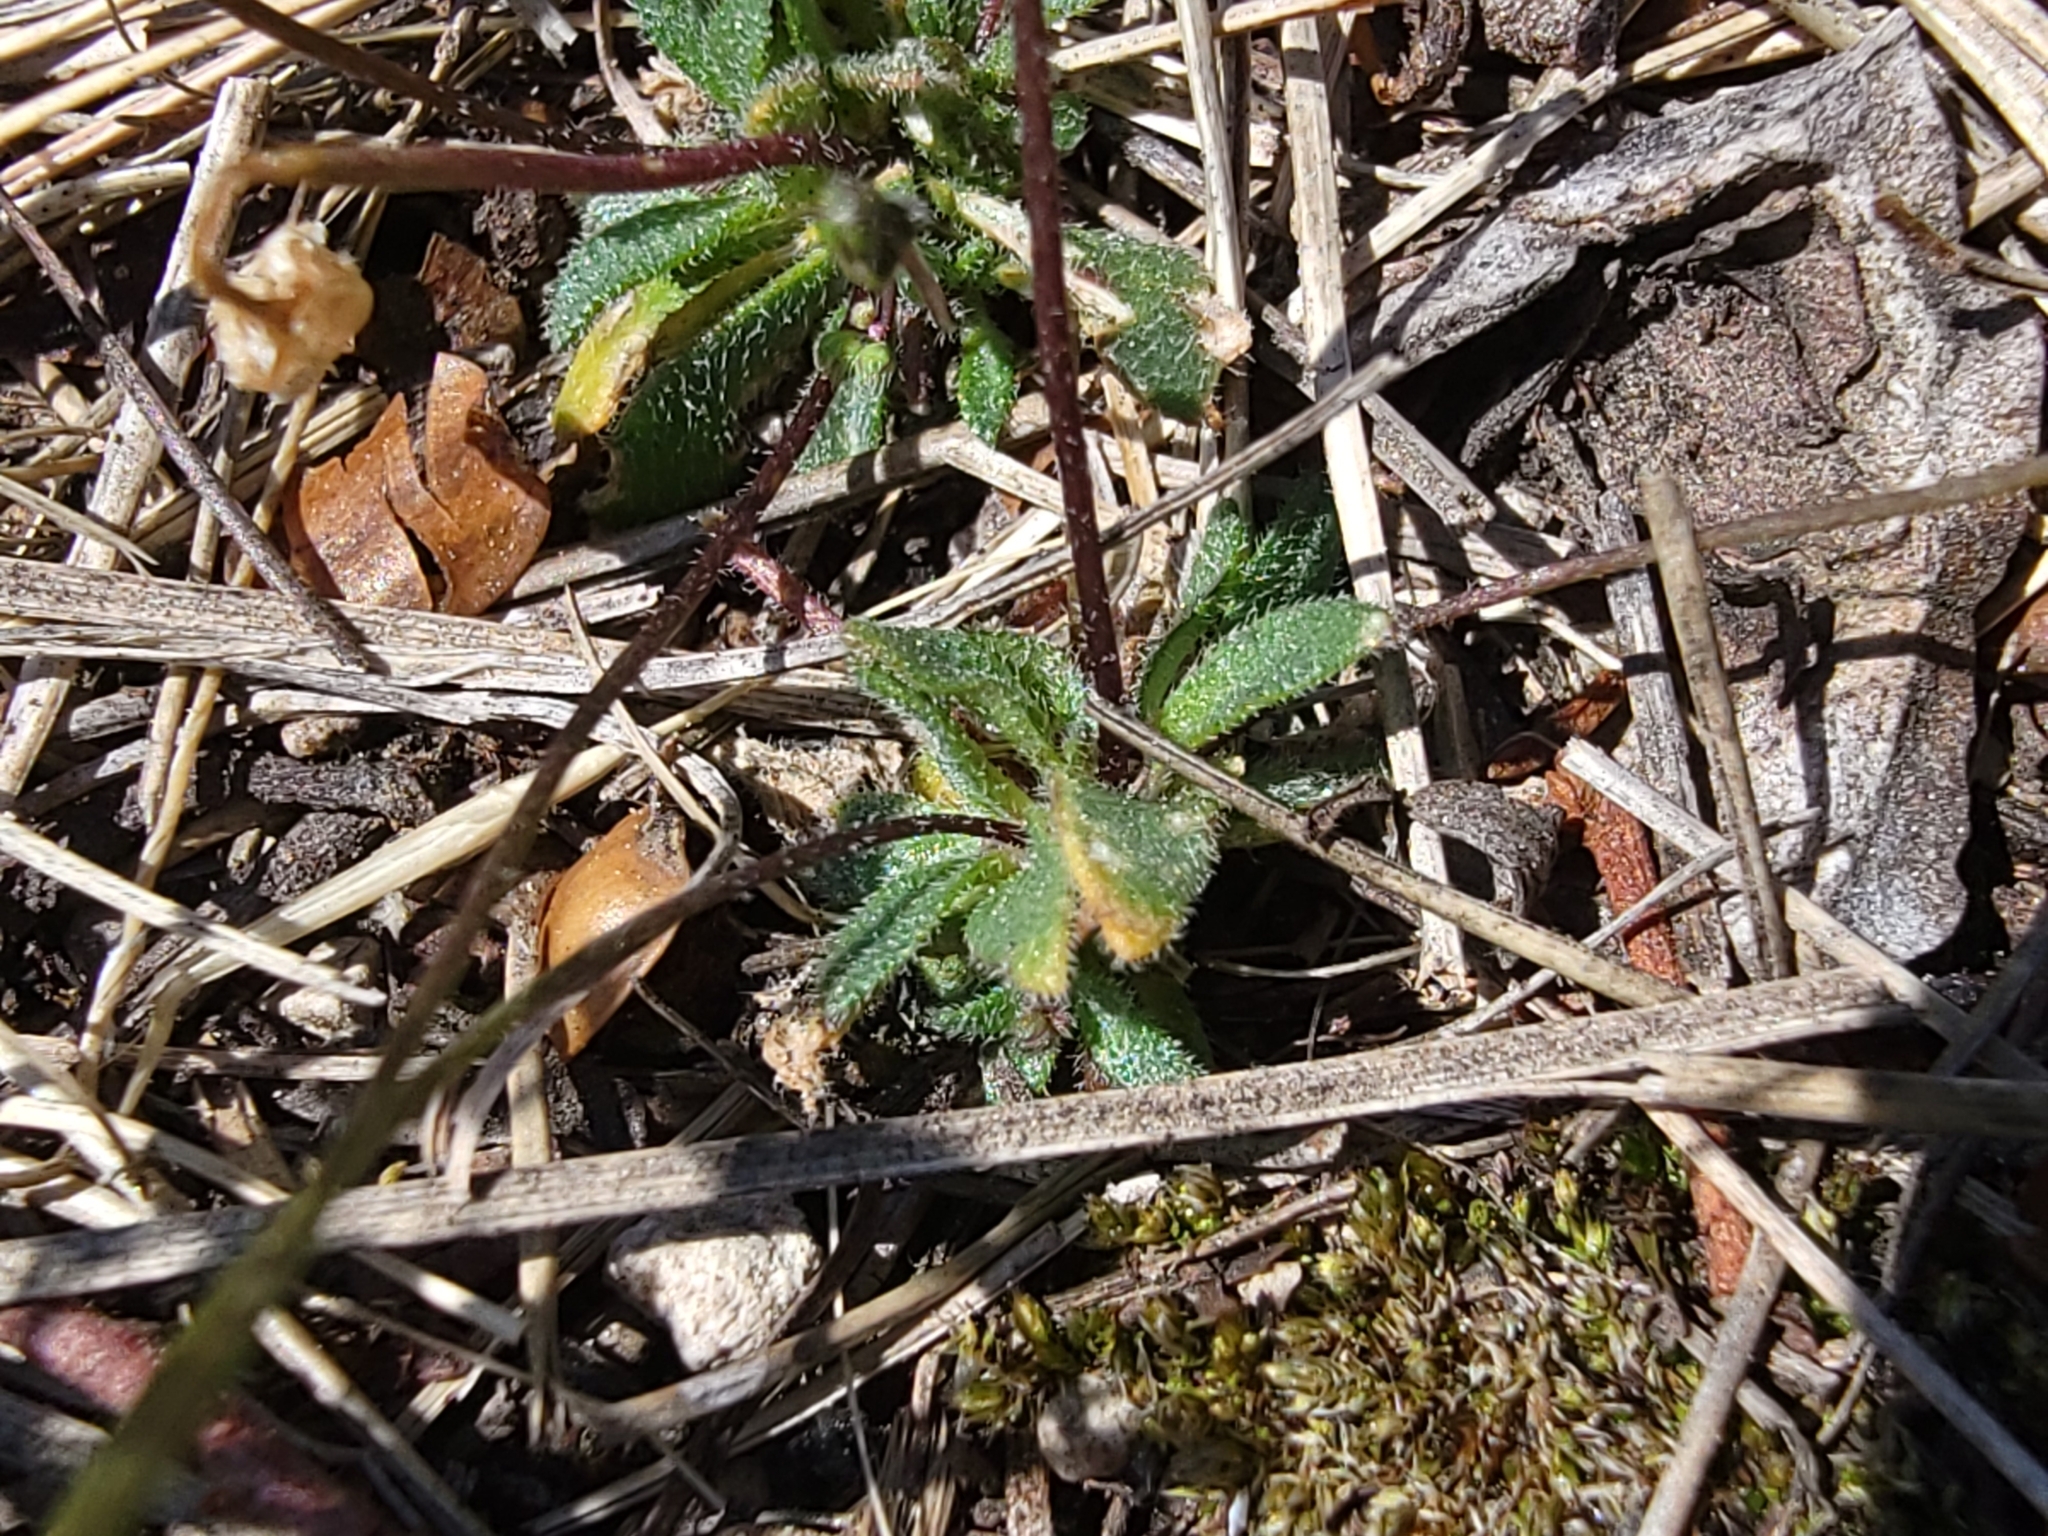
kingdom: Plantae
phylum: Tracheophyta
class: Magnoliopsida
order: Brassicales
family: Brassicaceae
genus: Draba
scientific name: Draba verna
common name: Spring draba
